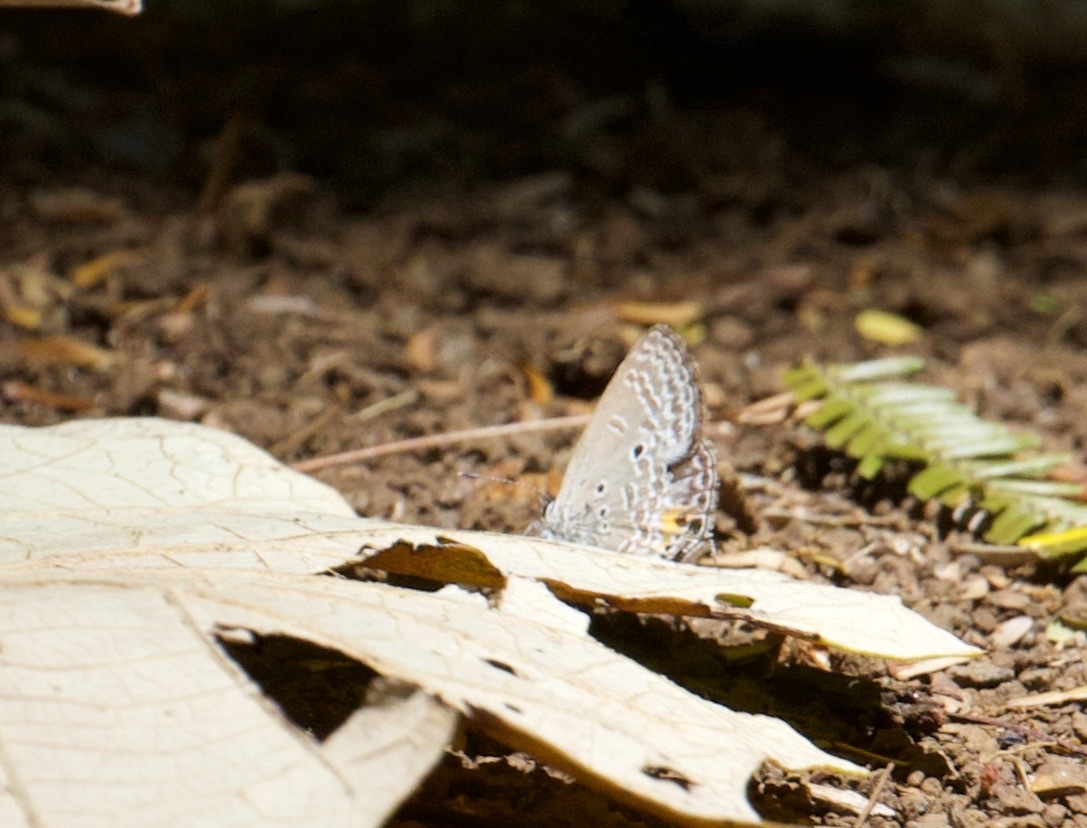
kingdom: Animalia
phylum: Arthropoda
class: Insecta
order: Lepidoptera
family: Lycaenidae
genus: Luthrodes
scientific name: Luthrodes pandava
